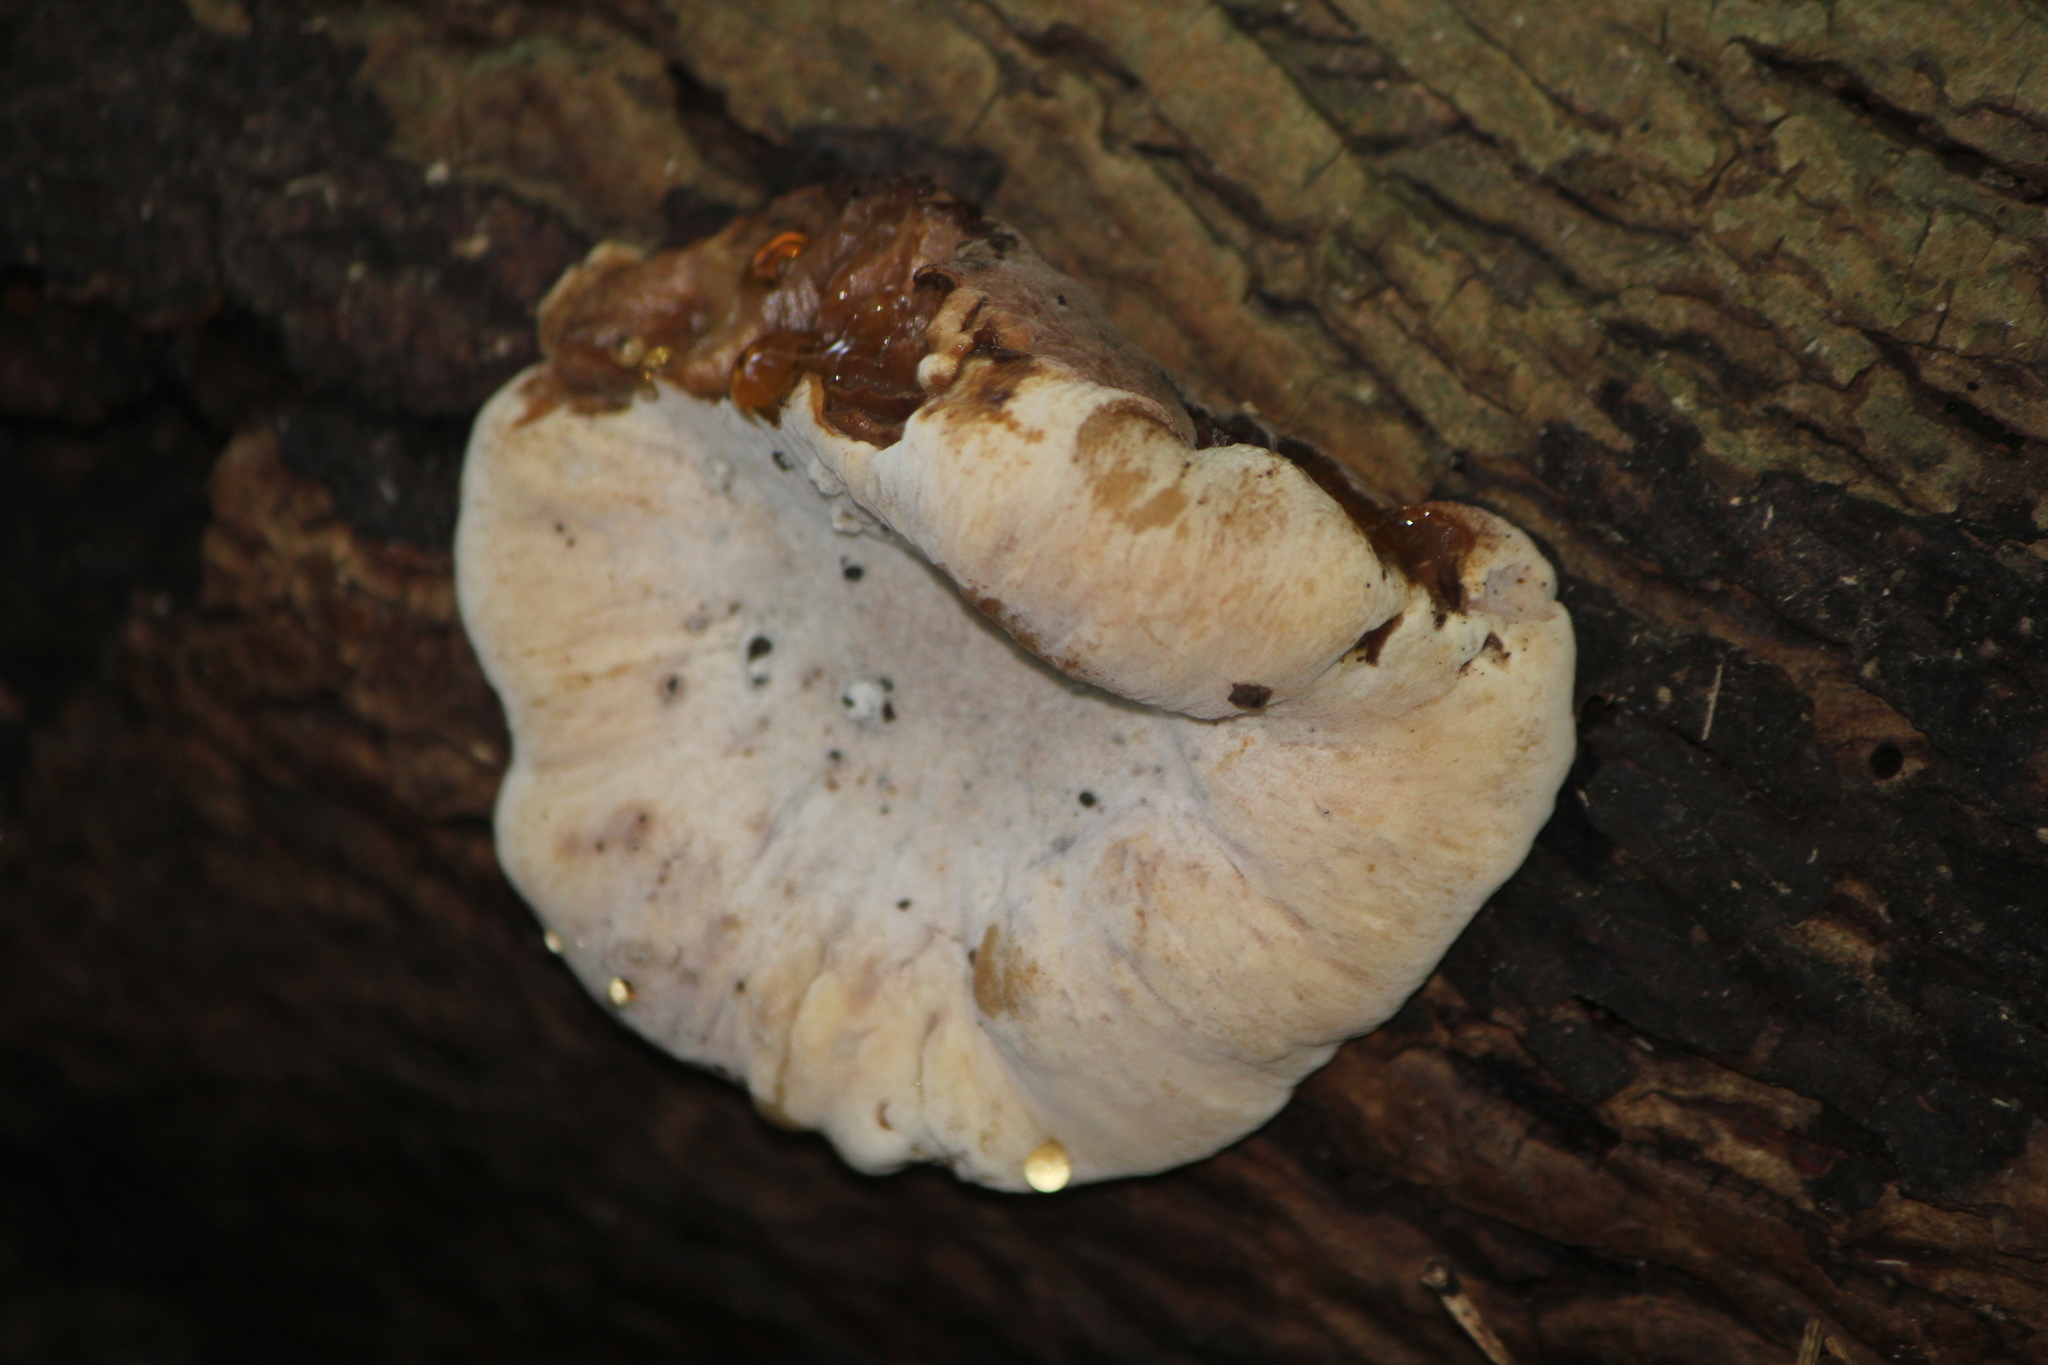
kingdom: Fungi
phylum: Basidiomycota
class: Agaricomycetes
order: Polyporales
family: Ischnodermataceae
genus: Ischnoderma
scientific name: Ischnoderma resinosum
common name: Resinous polypore
